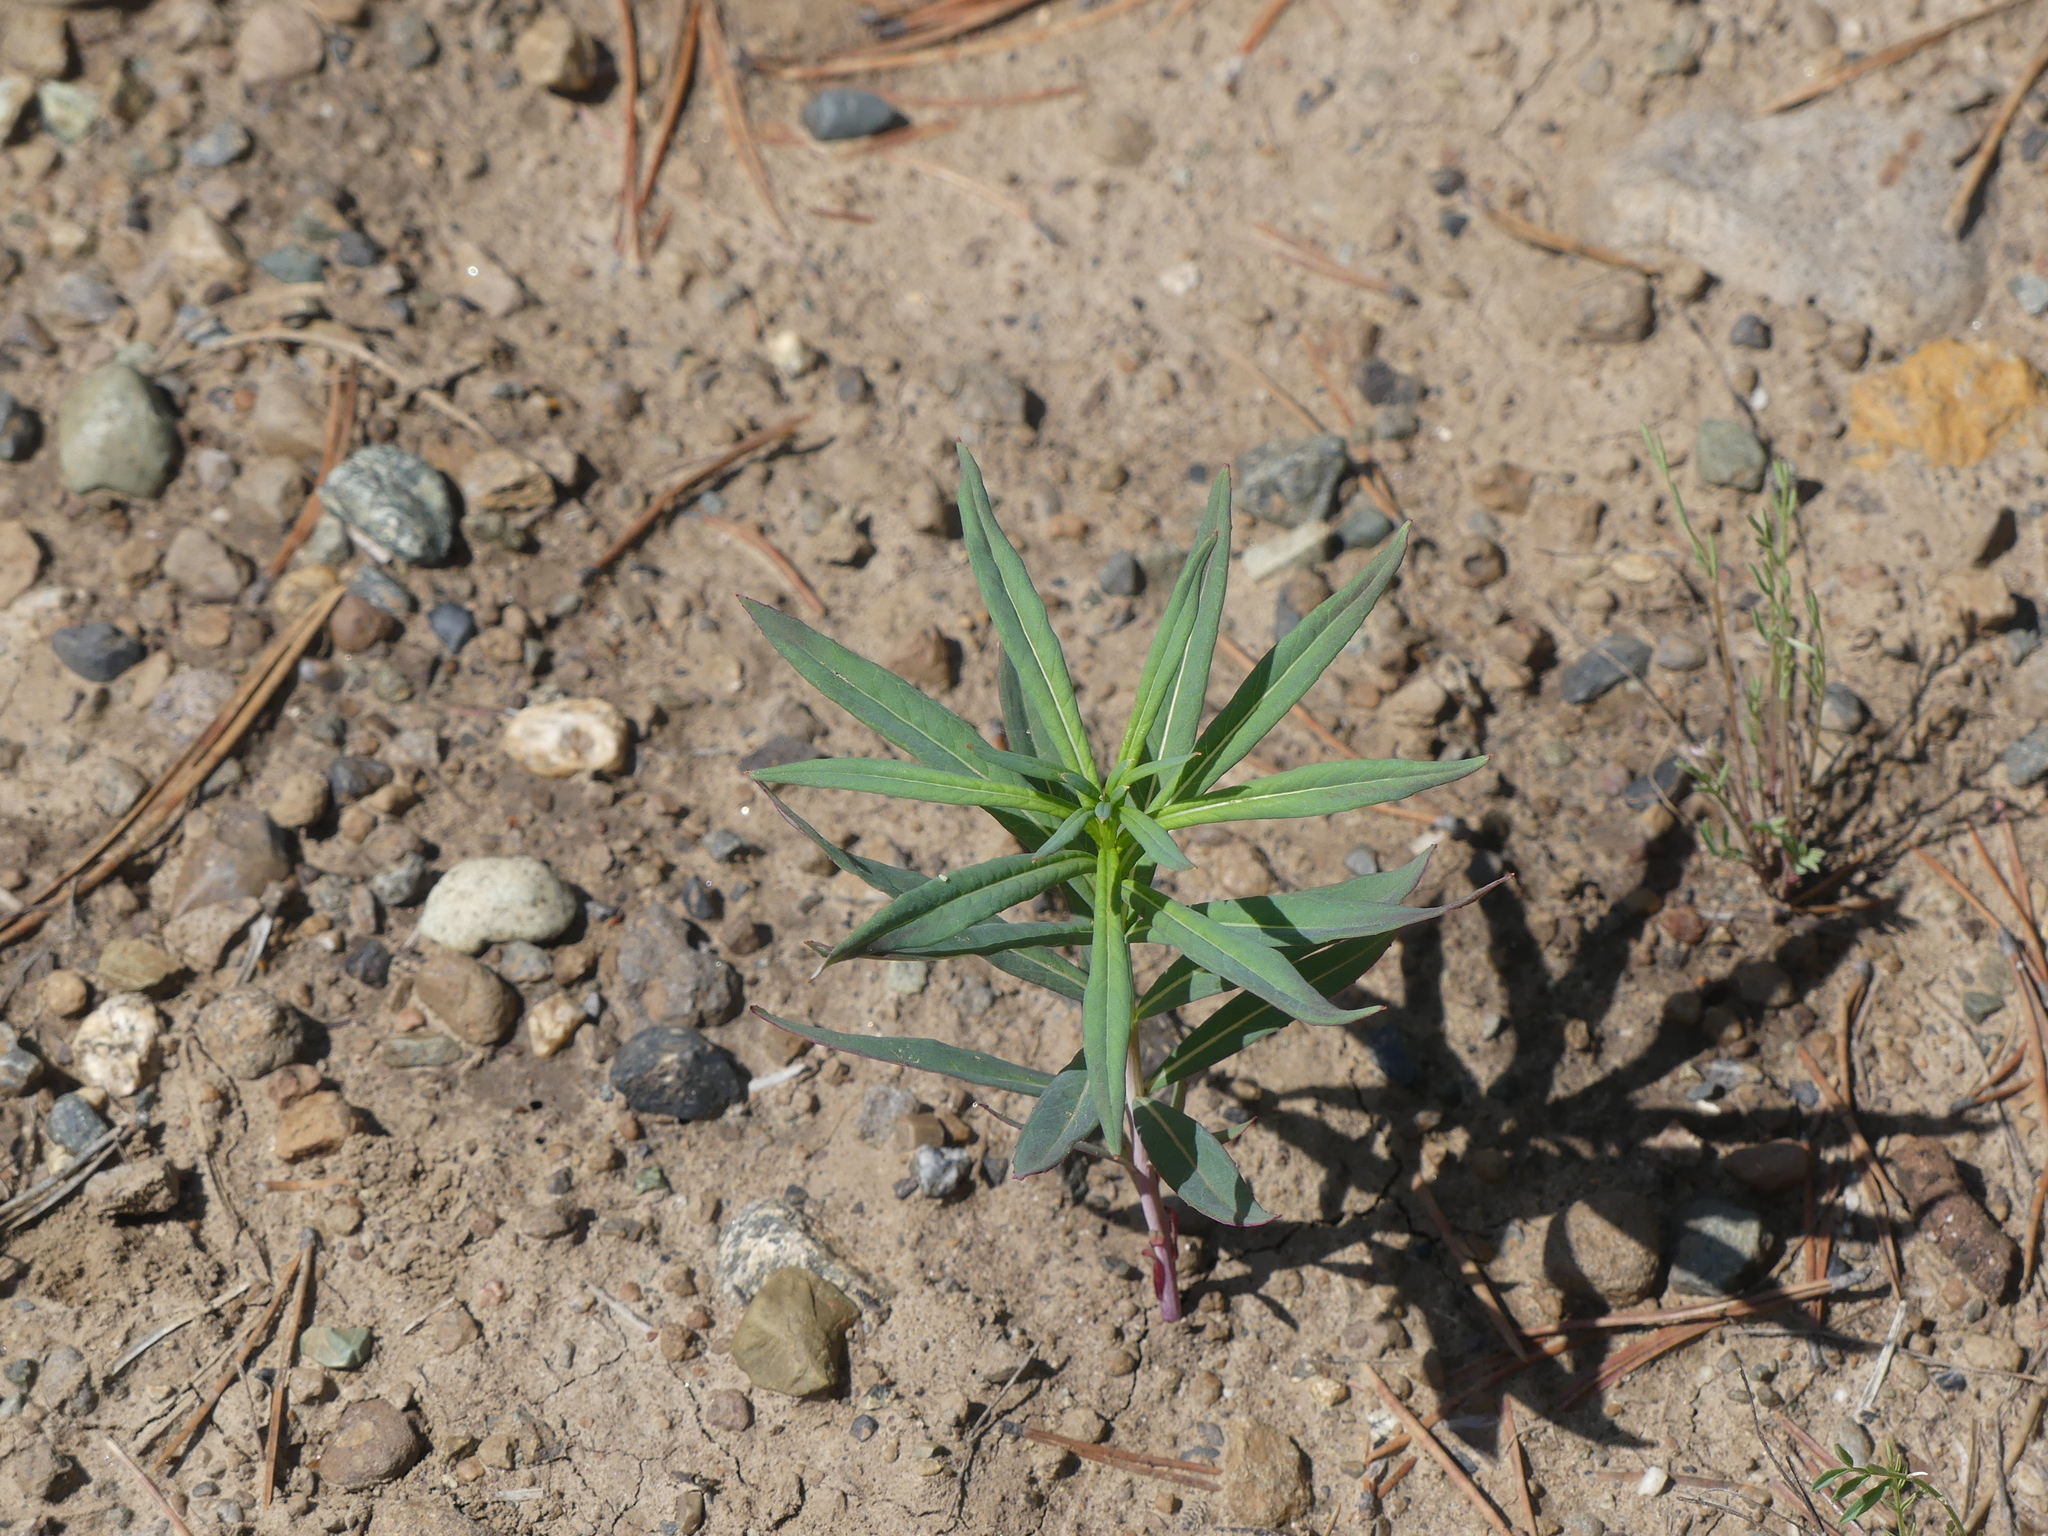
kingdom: Plantae
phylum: Tracheophyta
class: Magnoliopsida
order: Myrtales
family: Onagraceae
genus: Chamaenerion
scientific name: Chamaenerion angustifolium
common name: Fireweed
